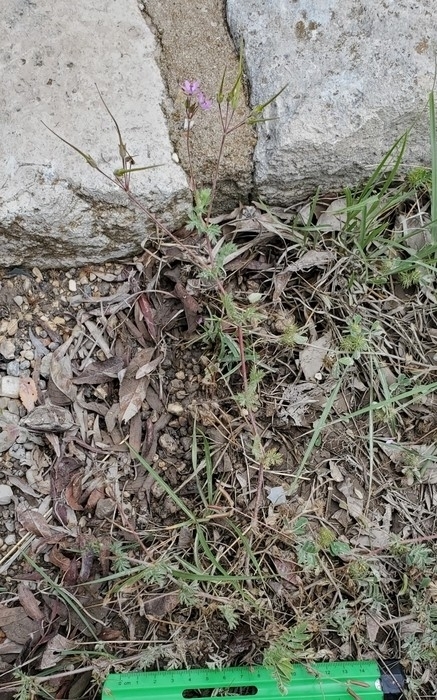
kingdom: Plantae
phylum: Tracheophyta
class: Magnoliopsida
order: Geraniales
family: Geraniaceae
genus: Erodium
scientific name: Erodium cicutarium
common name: Common stork's-bill
